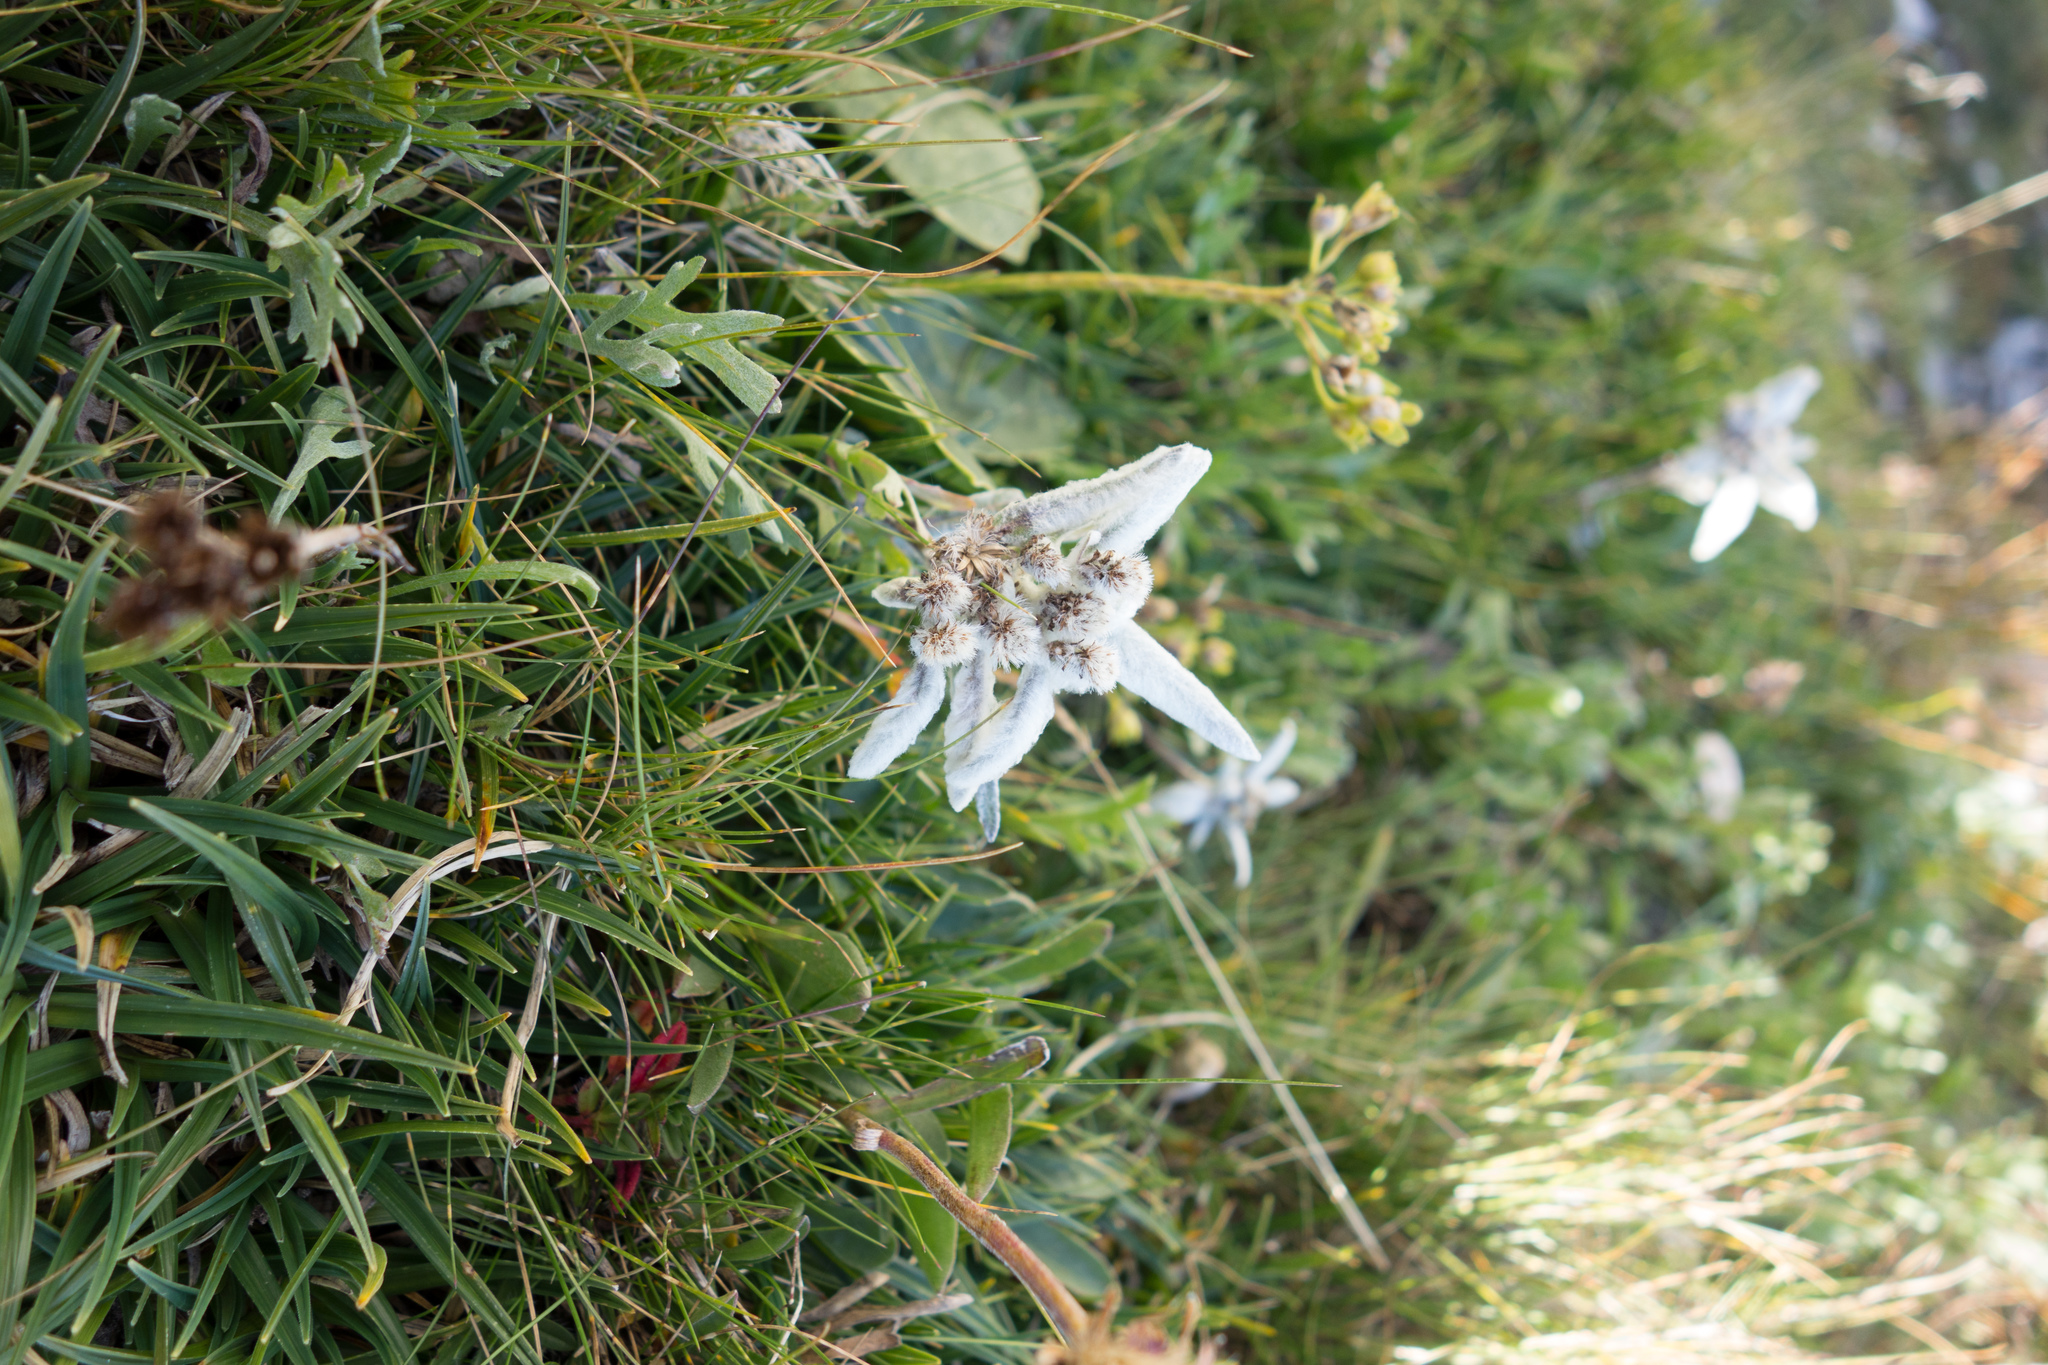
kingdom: Plantae
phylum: Tracheophyta
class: Magnoliopsida
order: Asterales
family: Asteraceae
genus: Leontopodium
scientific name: Leontopodium nivale
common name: Edelweiss
